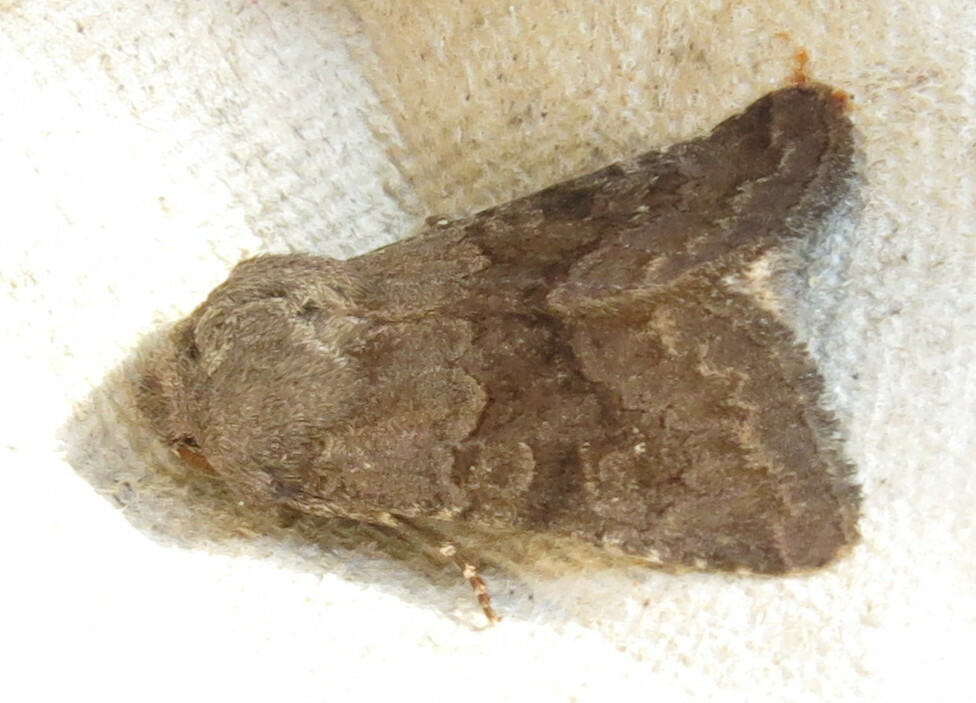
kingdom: Animalia
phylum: Arthropoda
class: Insecta
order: Lepidoptera
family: Noctuidae
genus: Aporophyla
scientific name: Aporophyla lutulenta
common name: Deep-brown dart
